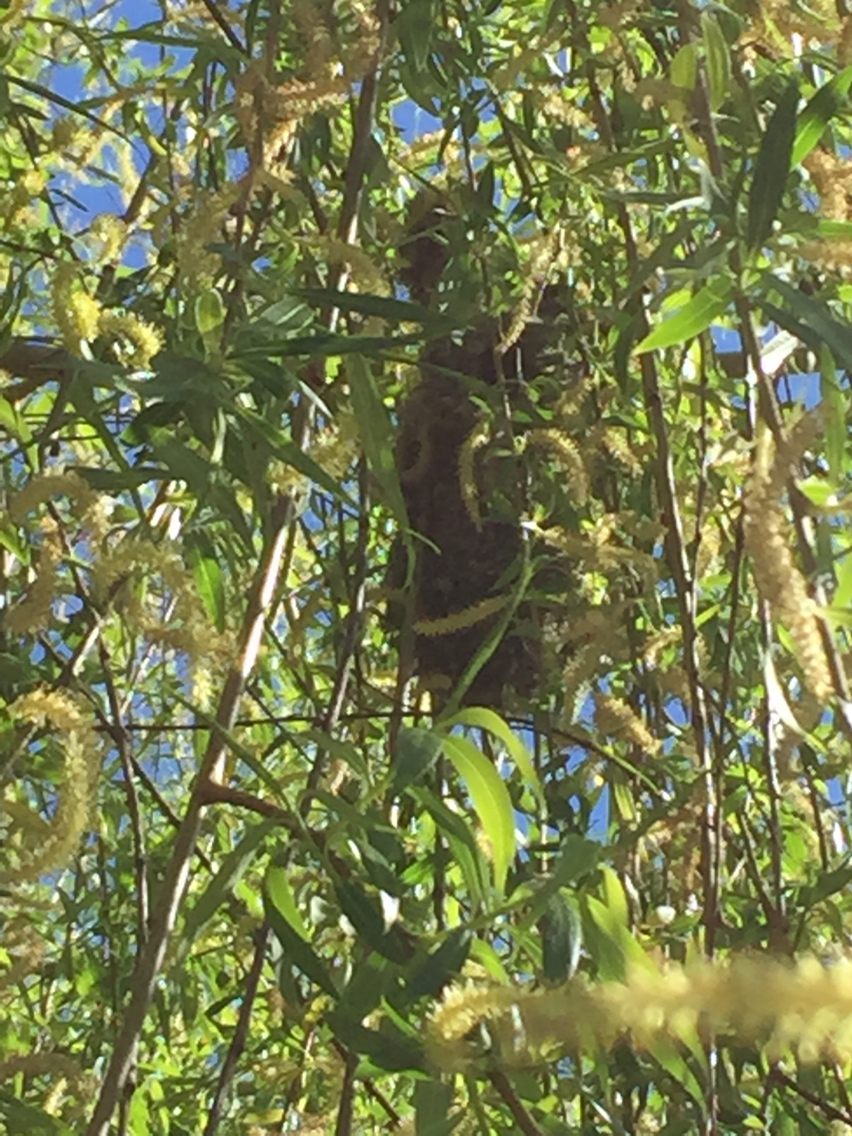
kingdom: Animalia
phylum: Chordata
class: Aves
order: Passeriformes
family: Aegithalidae
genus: Psaltriparus
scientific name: Psaltriparus minimus
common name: American bushtit
